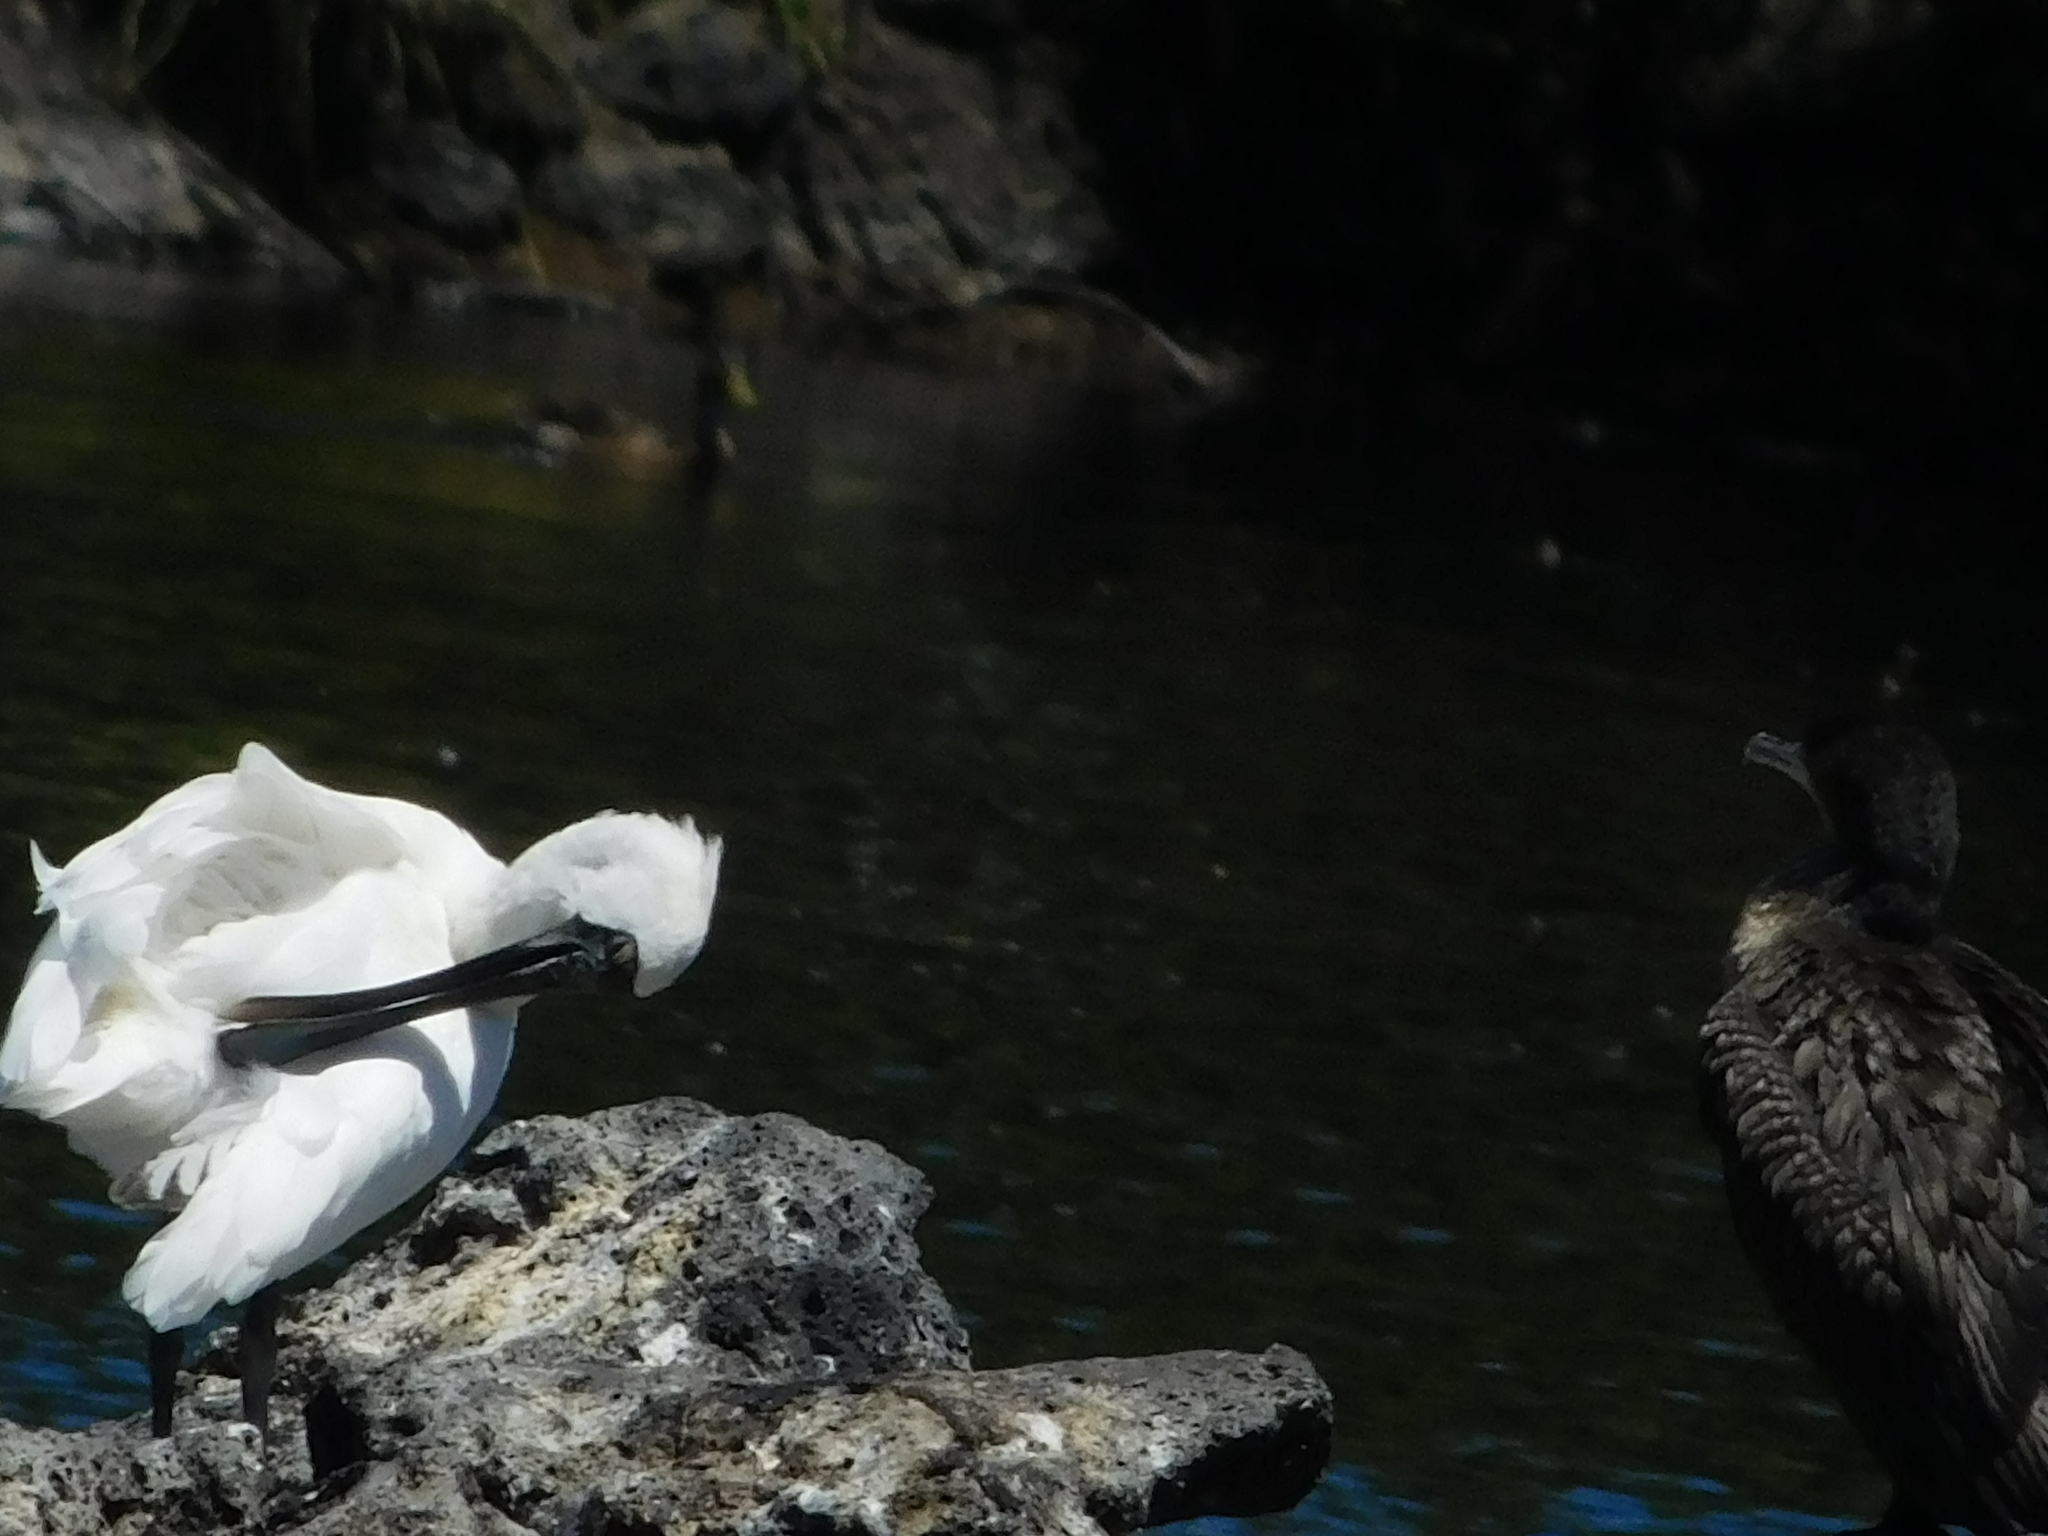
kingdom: Animalia
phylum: Chordata
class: Aves
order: Pelecaniformes
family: Threskiornithidae
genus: Platalea
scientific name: Platalea regia
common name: Royal spoonbill
